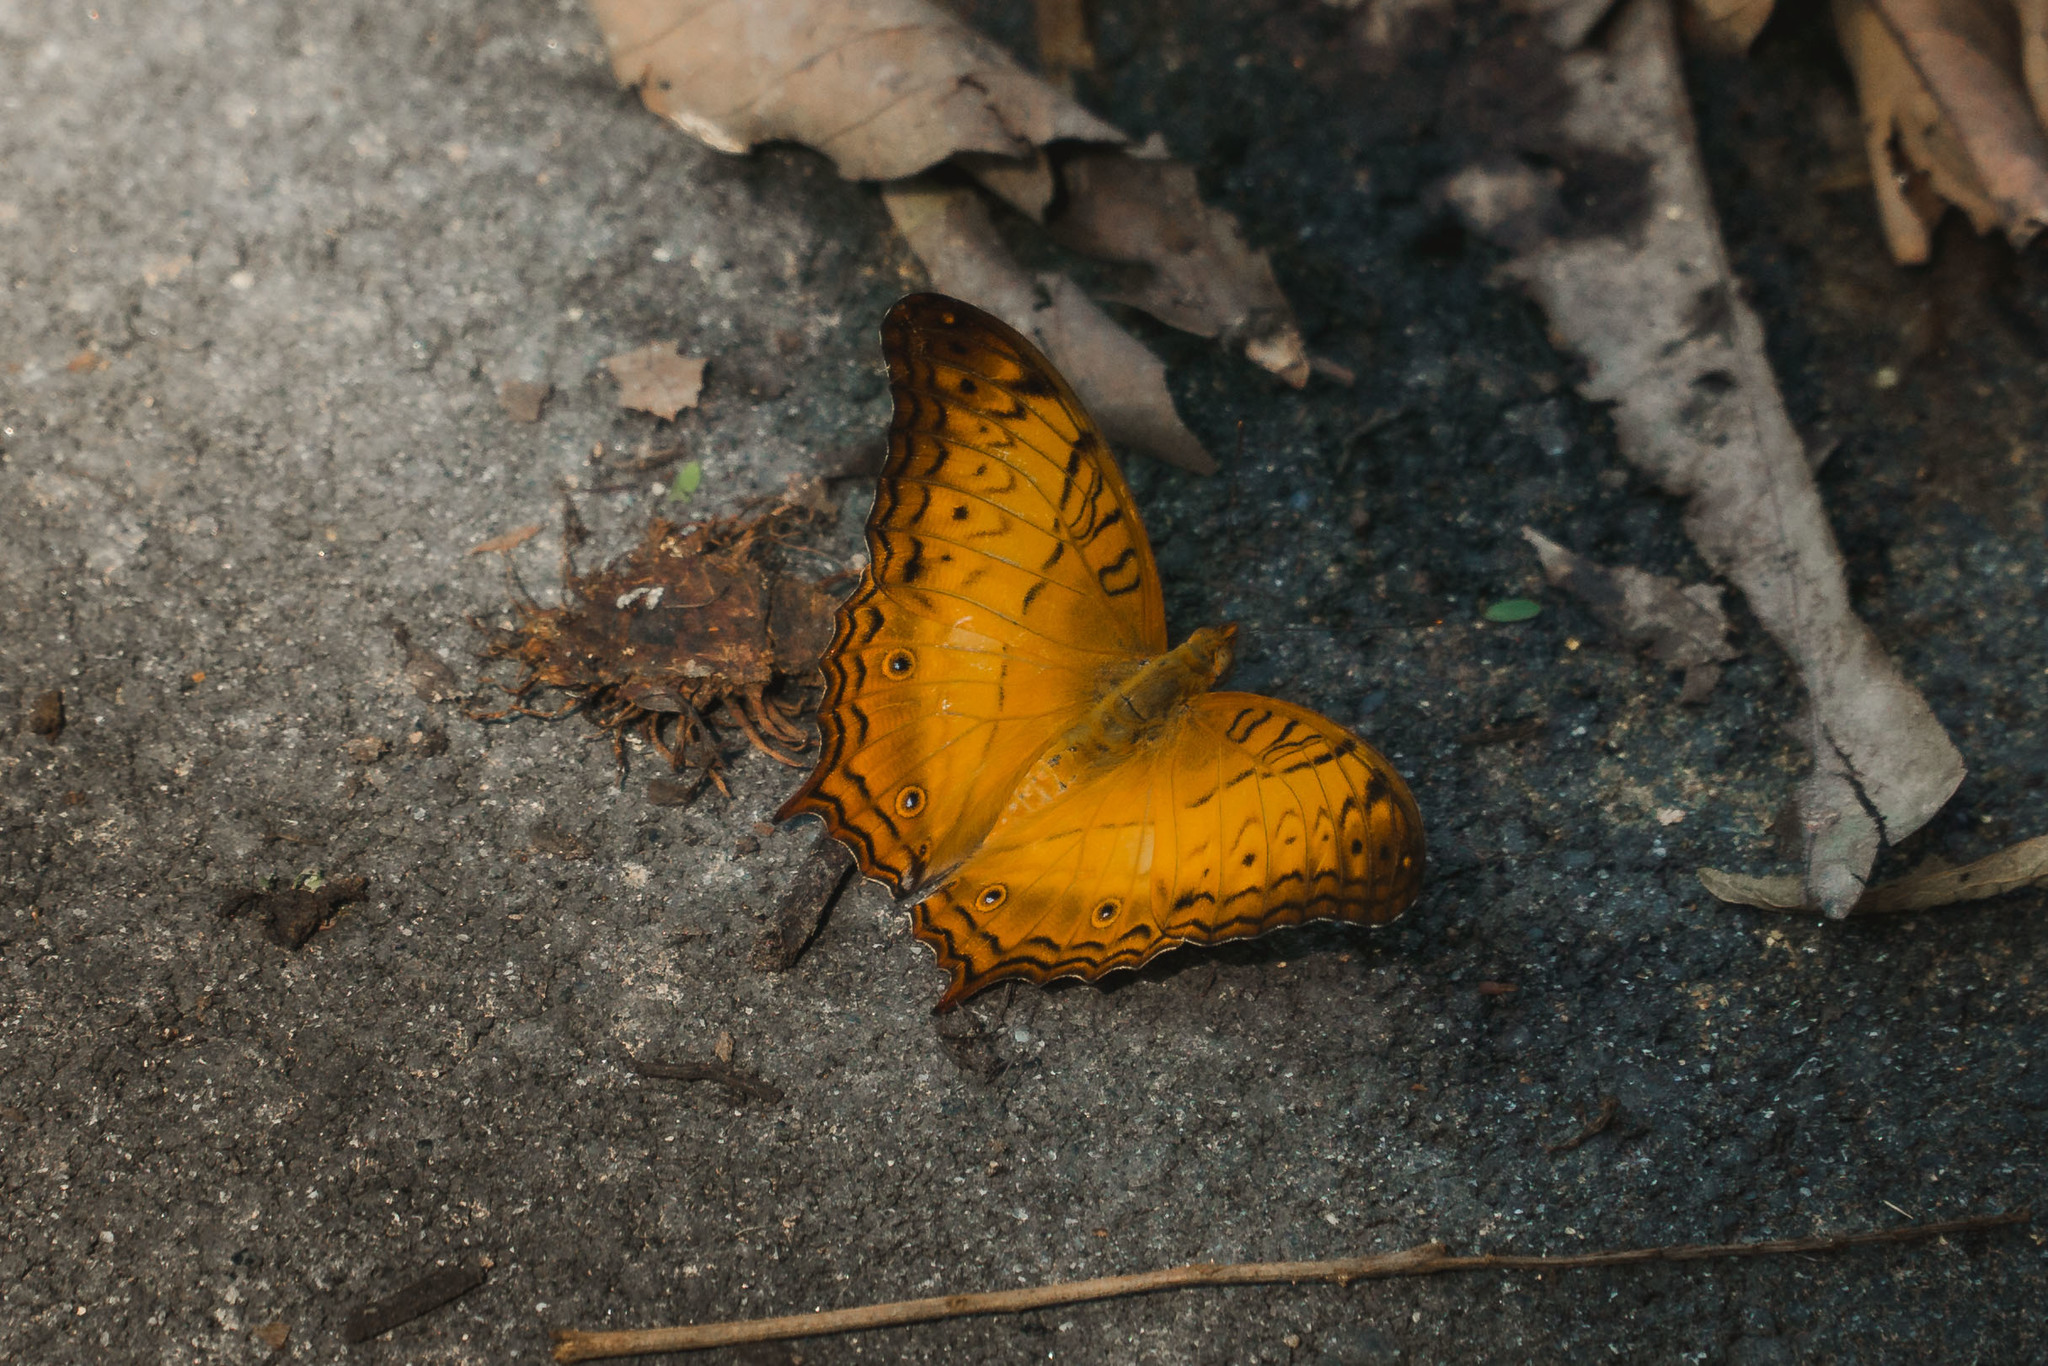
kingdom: Animalia
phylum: Arthropoda
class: Insecta
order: Lepidoptera
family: Nymphalidae
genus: Vindula
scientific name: Vindula deione
